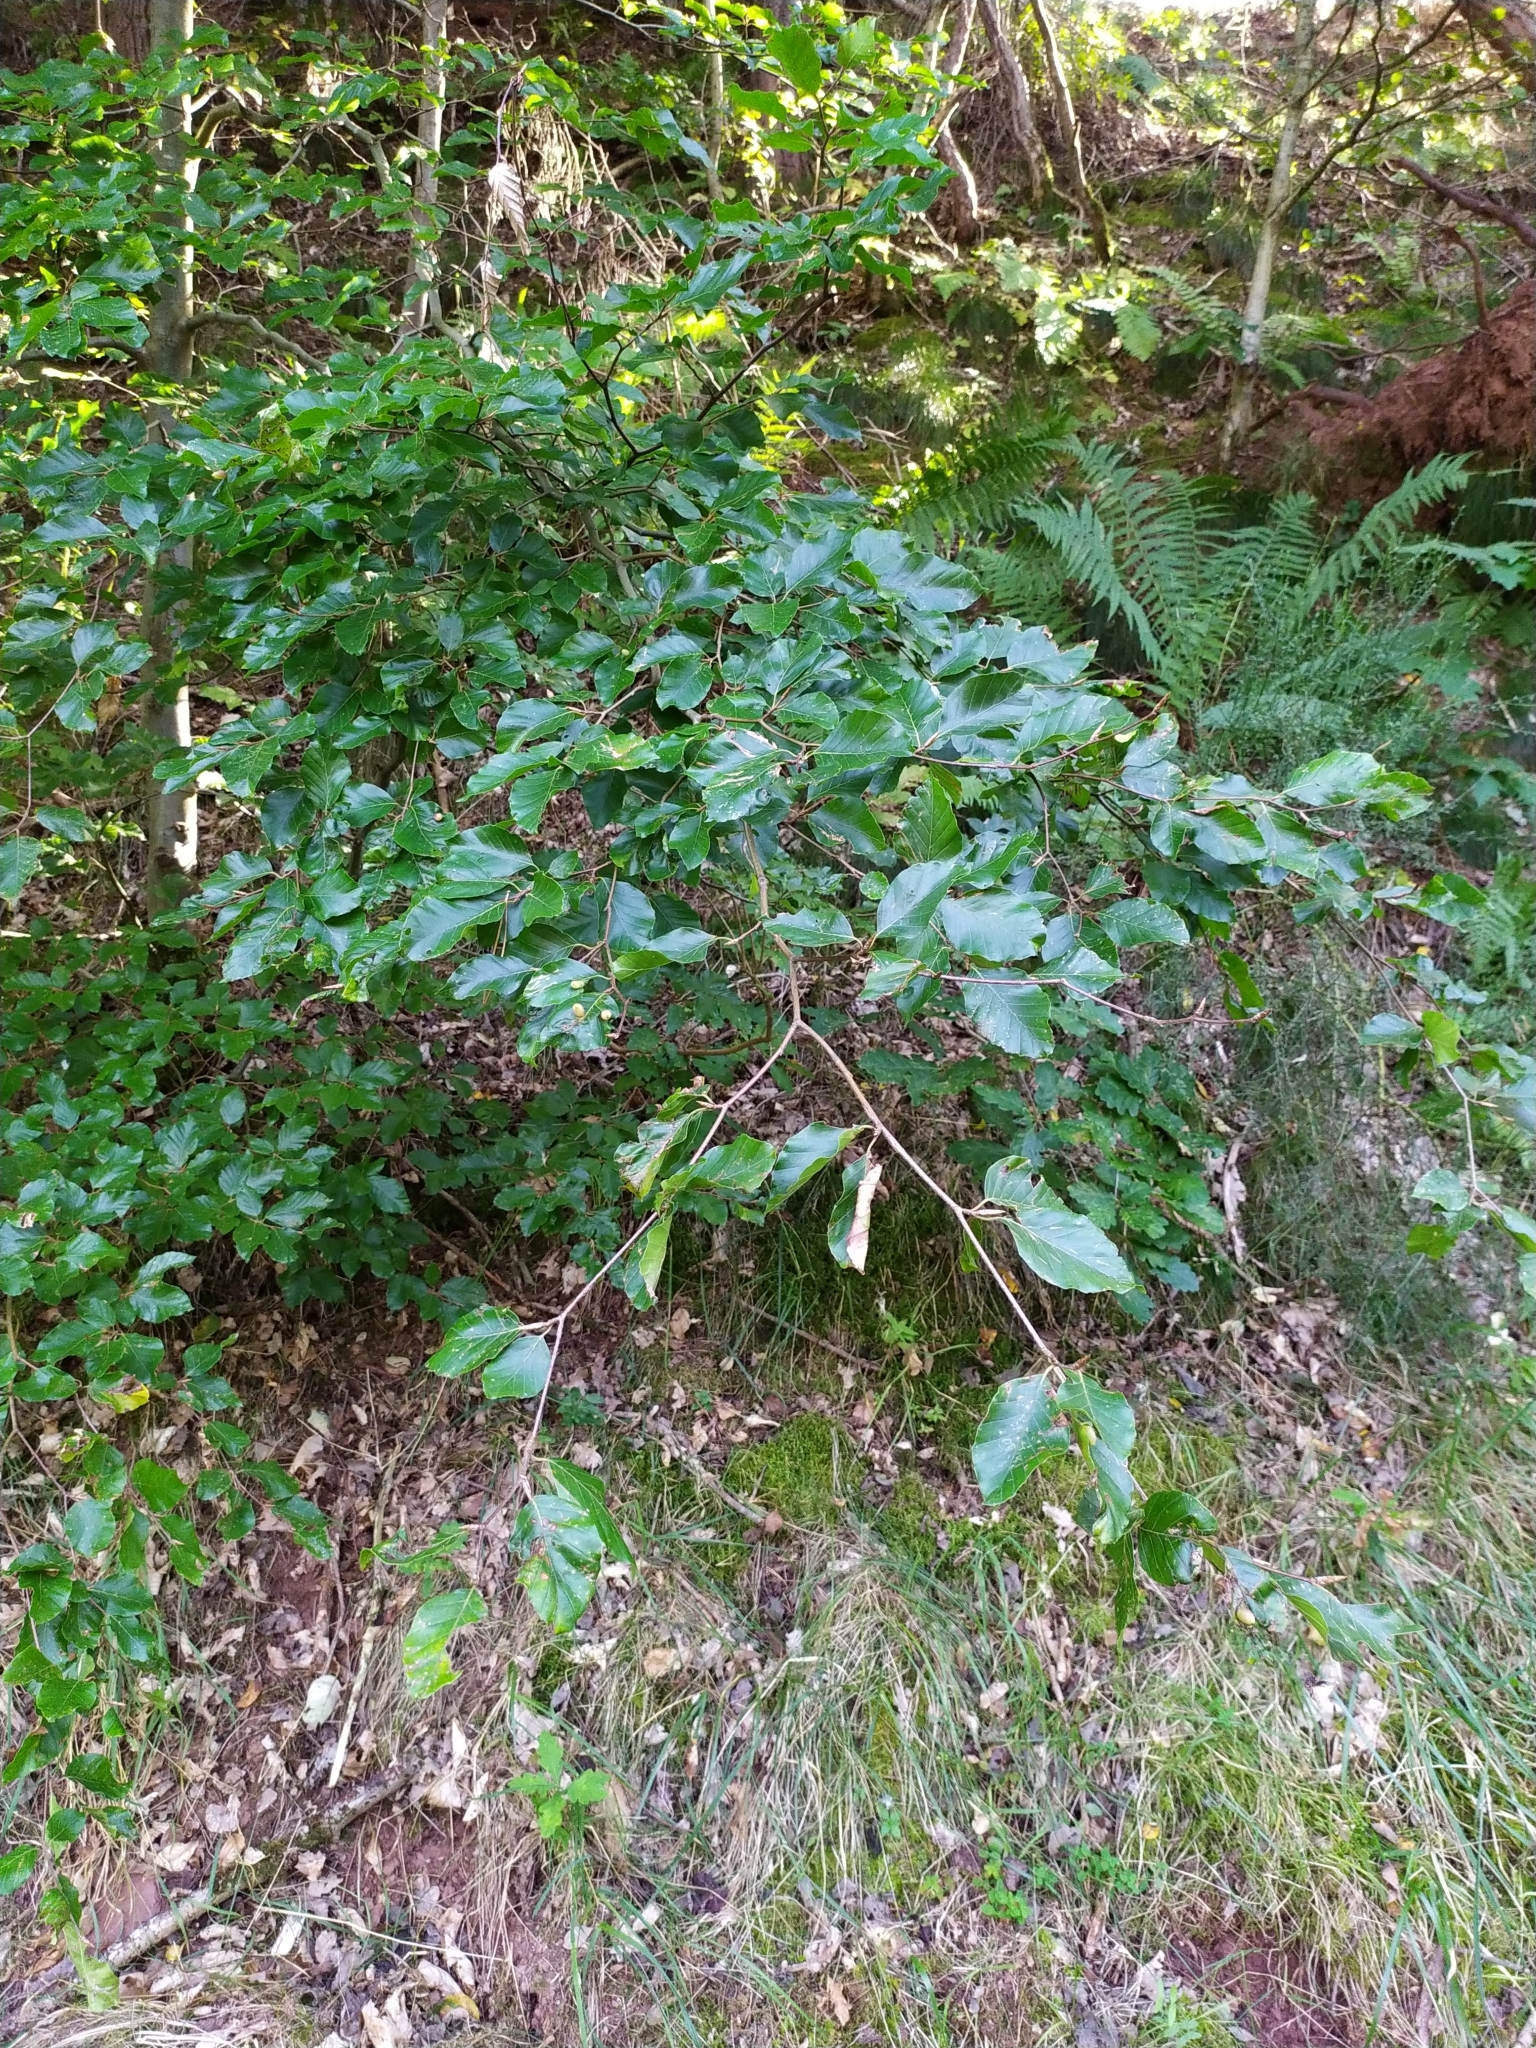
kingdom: Plantae
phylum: Tracheophyta
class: Magnoliopsida
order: Fagales
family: Fagaceae
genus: Fagus
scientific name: Fagus sylvatica
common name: Beech
